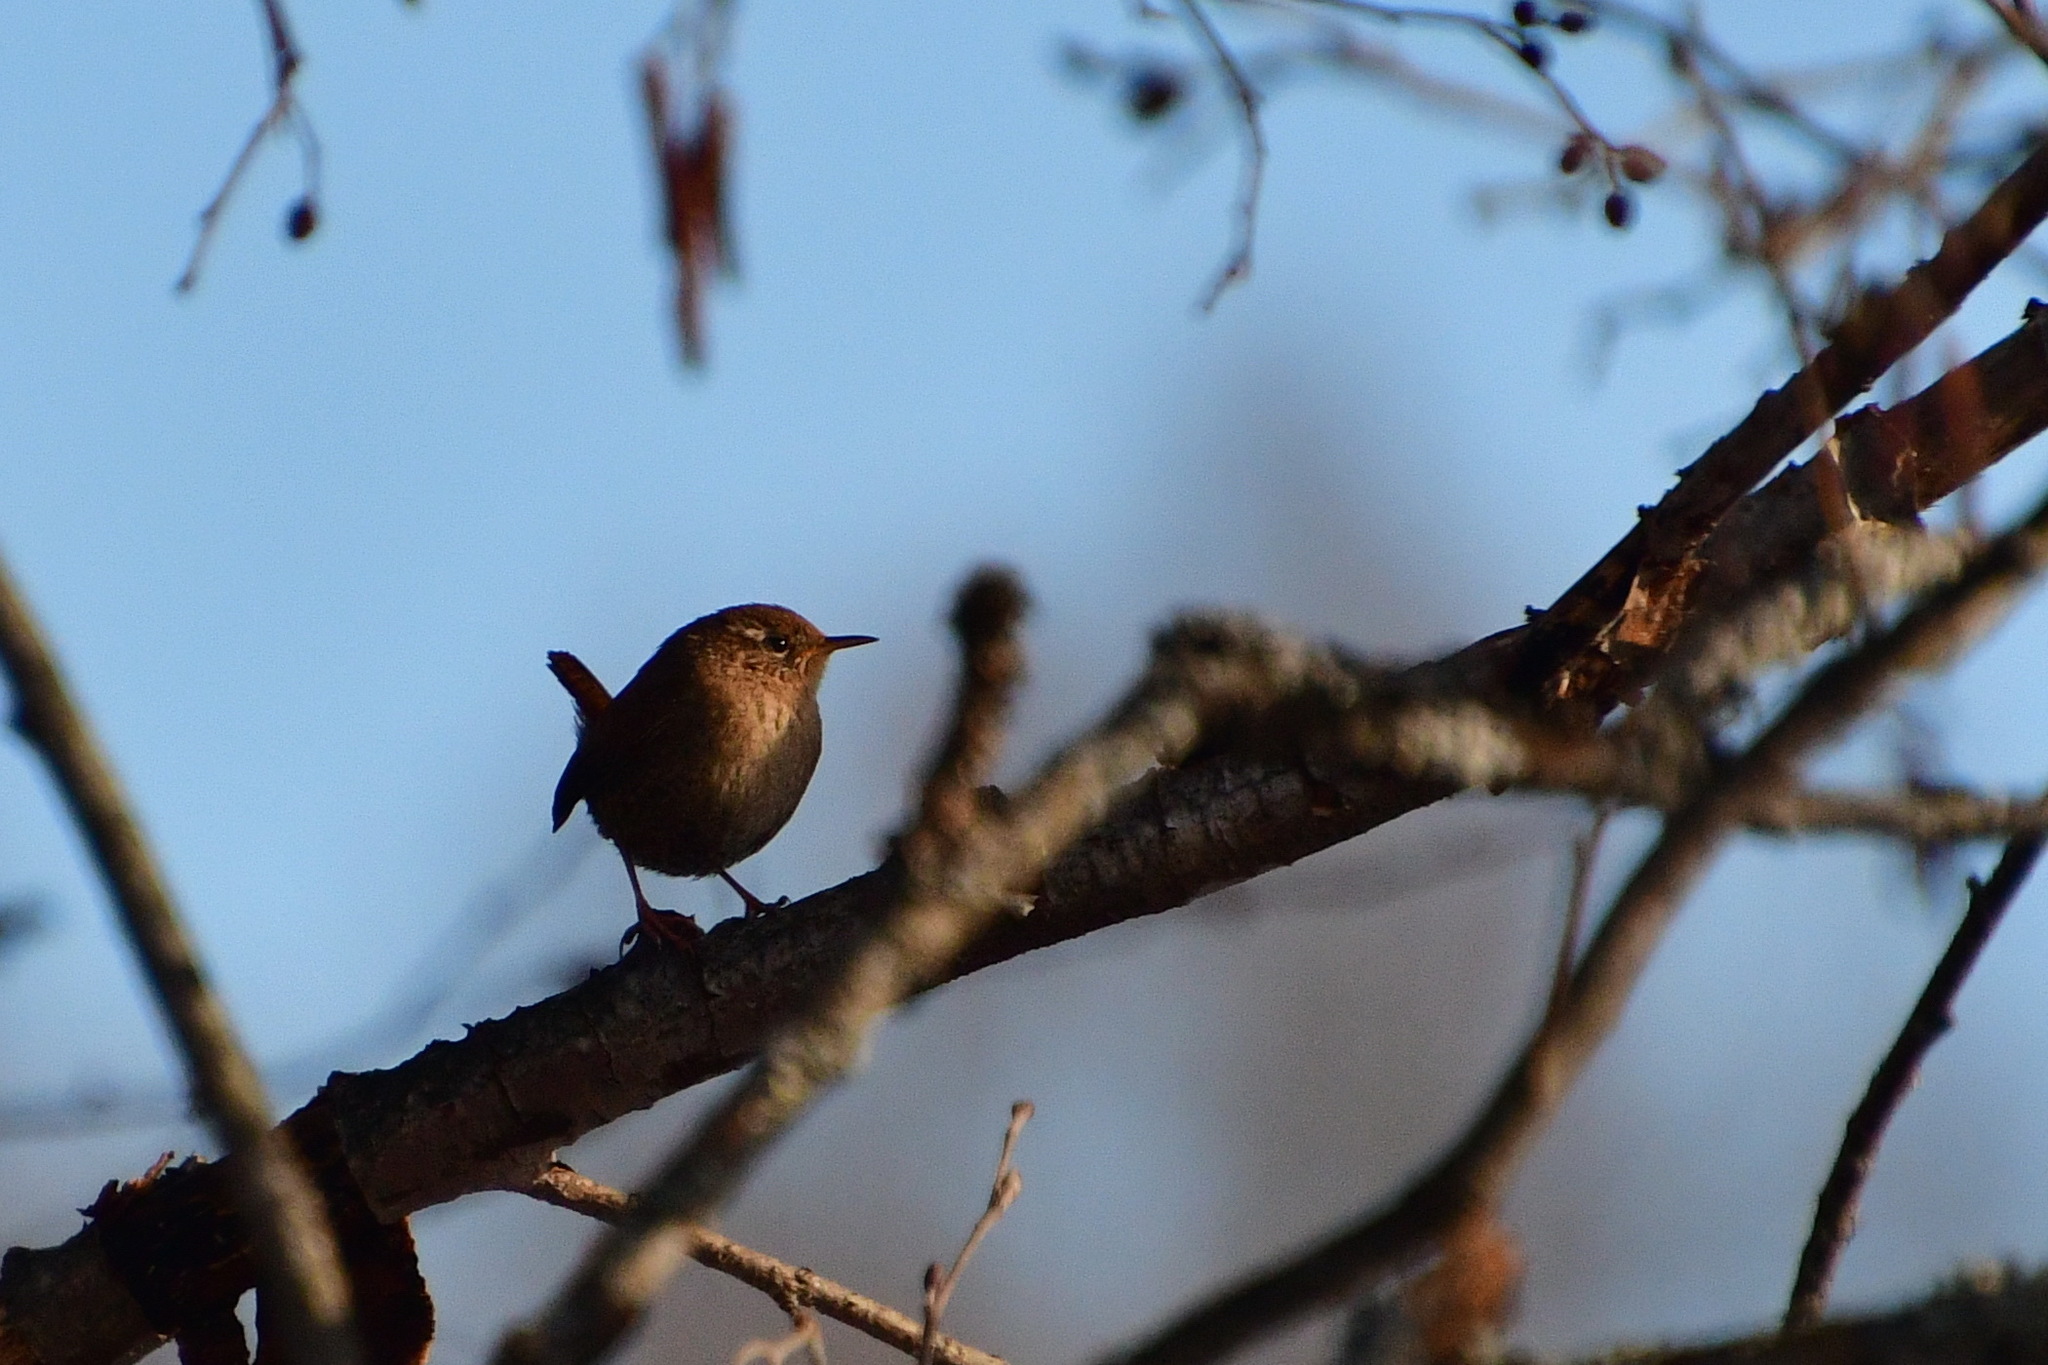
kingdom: Animalia
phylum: Chordata
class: Aves
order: Passeriformes
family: Troglodytidae
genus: Troglodytes
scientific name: Troglodytes troglodytes
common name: Eurasian wren
